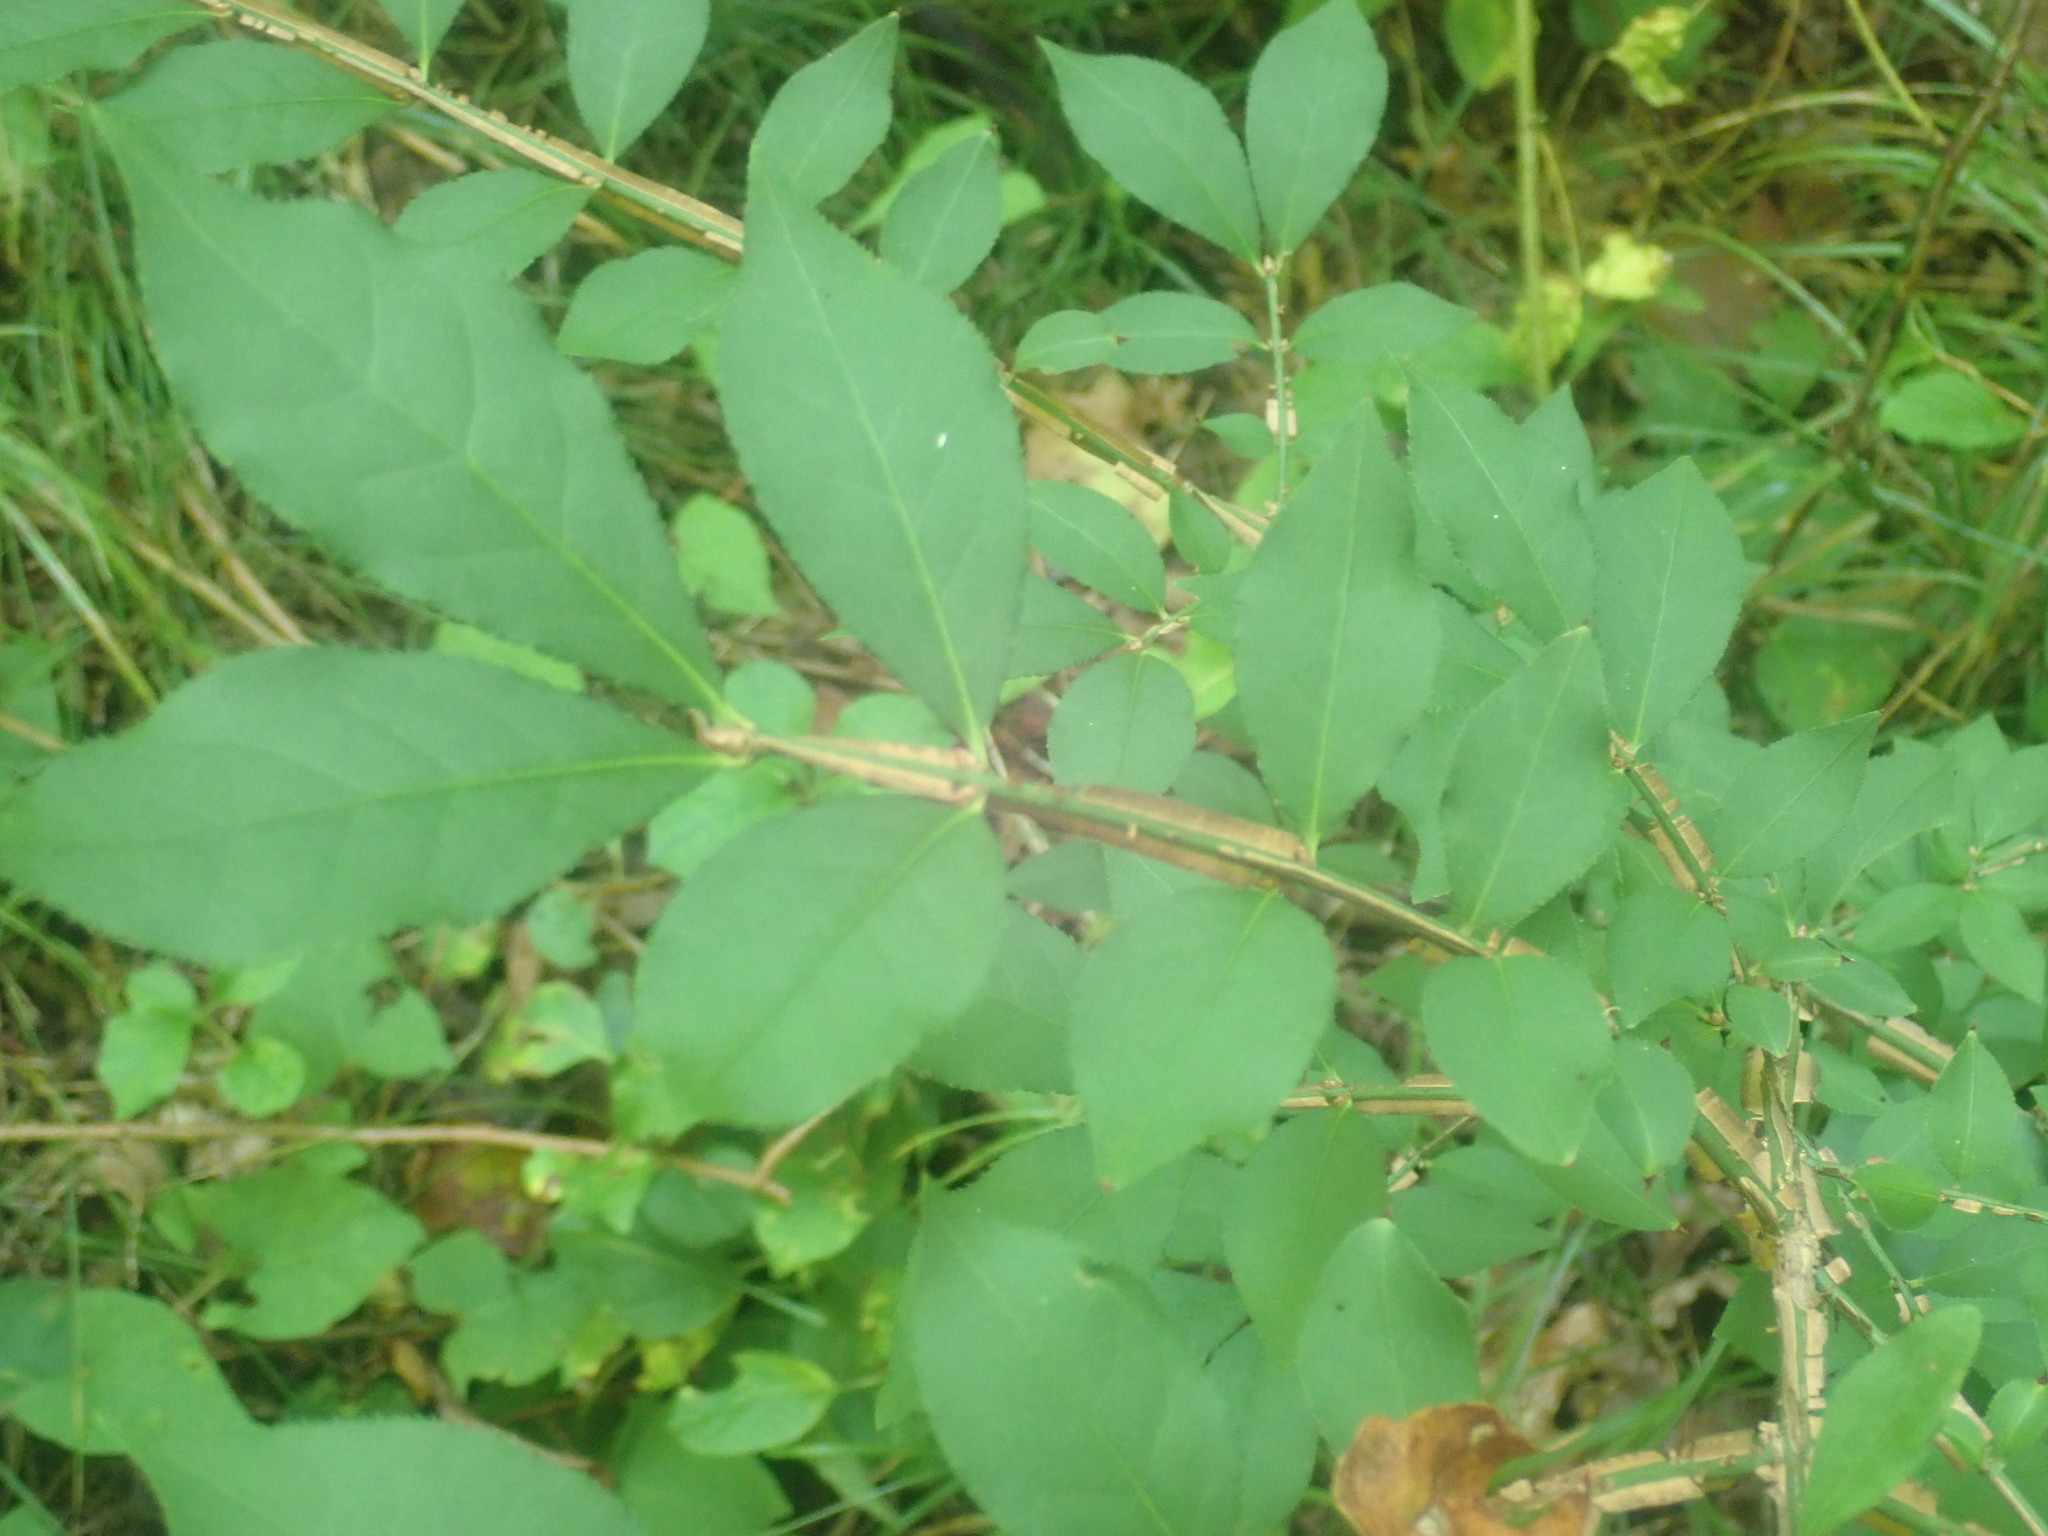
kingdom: Plantae
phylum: Tracheophyta
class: Magnoliopsida
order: Celastrales
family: Celastraceae
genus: Euonymus
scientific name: Euonymus alatus
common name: Winged euonymus
